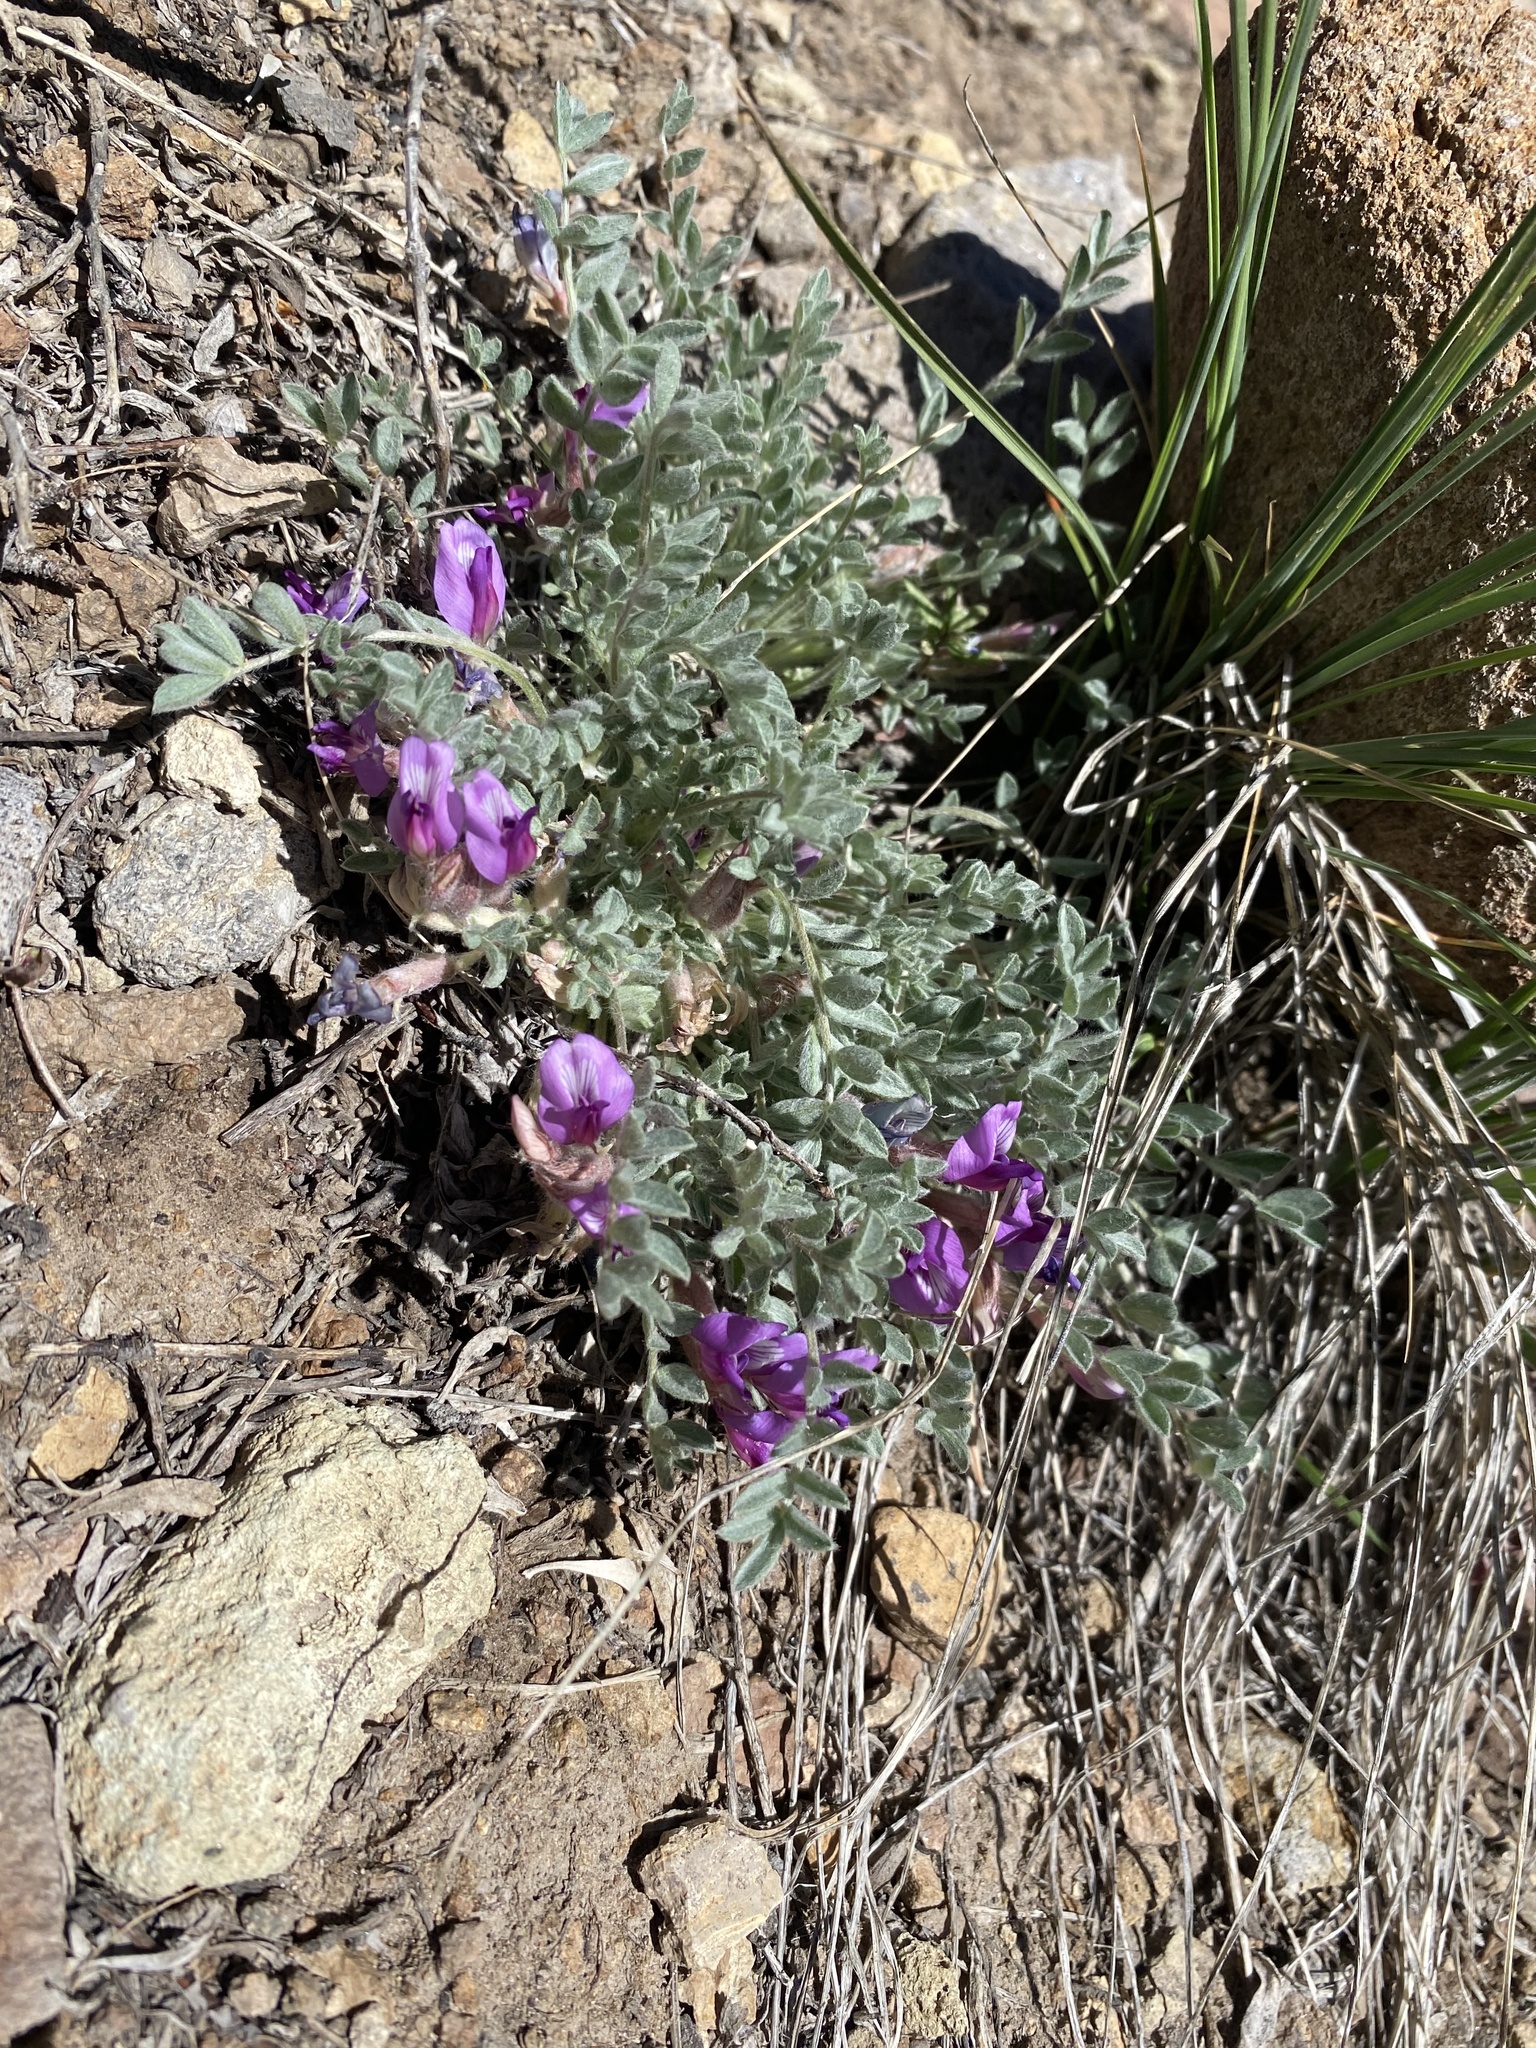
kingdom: Plantae
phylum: Tracheophyta
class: Magnoliopsida
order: Fabales
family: Fabaceae
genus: Astragalus
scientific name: Astragalus purshii
